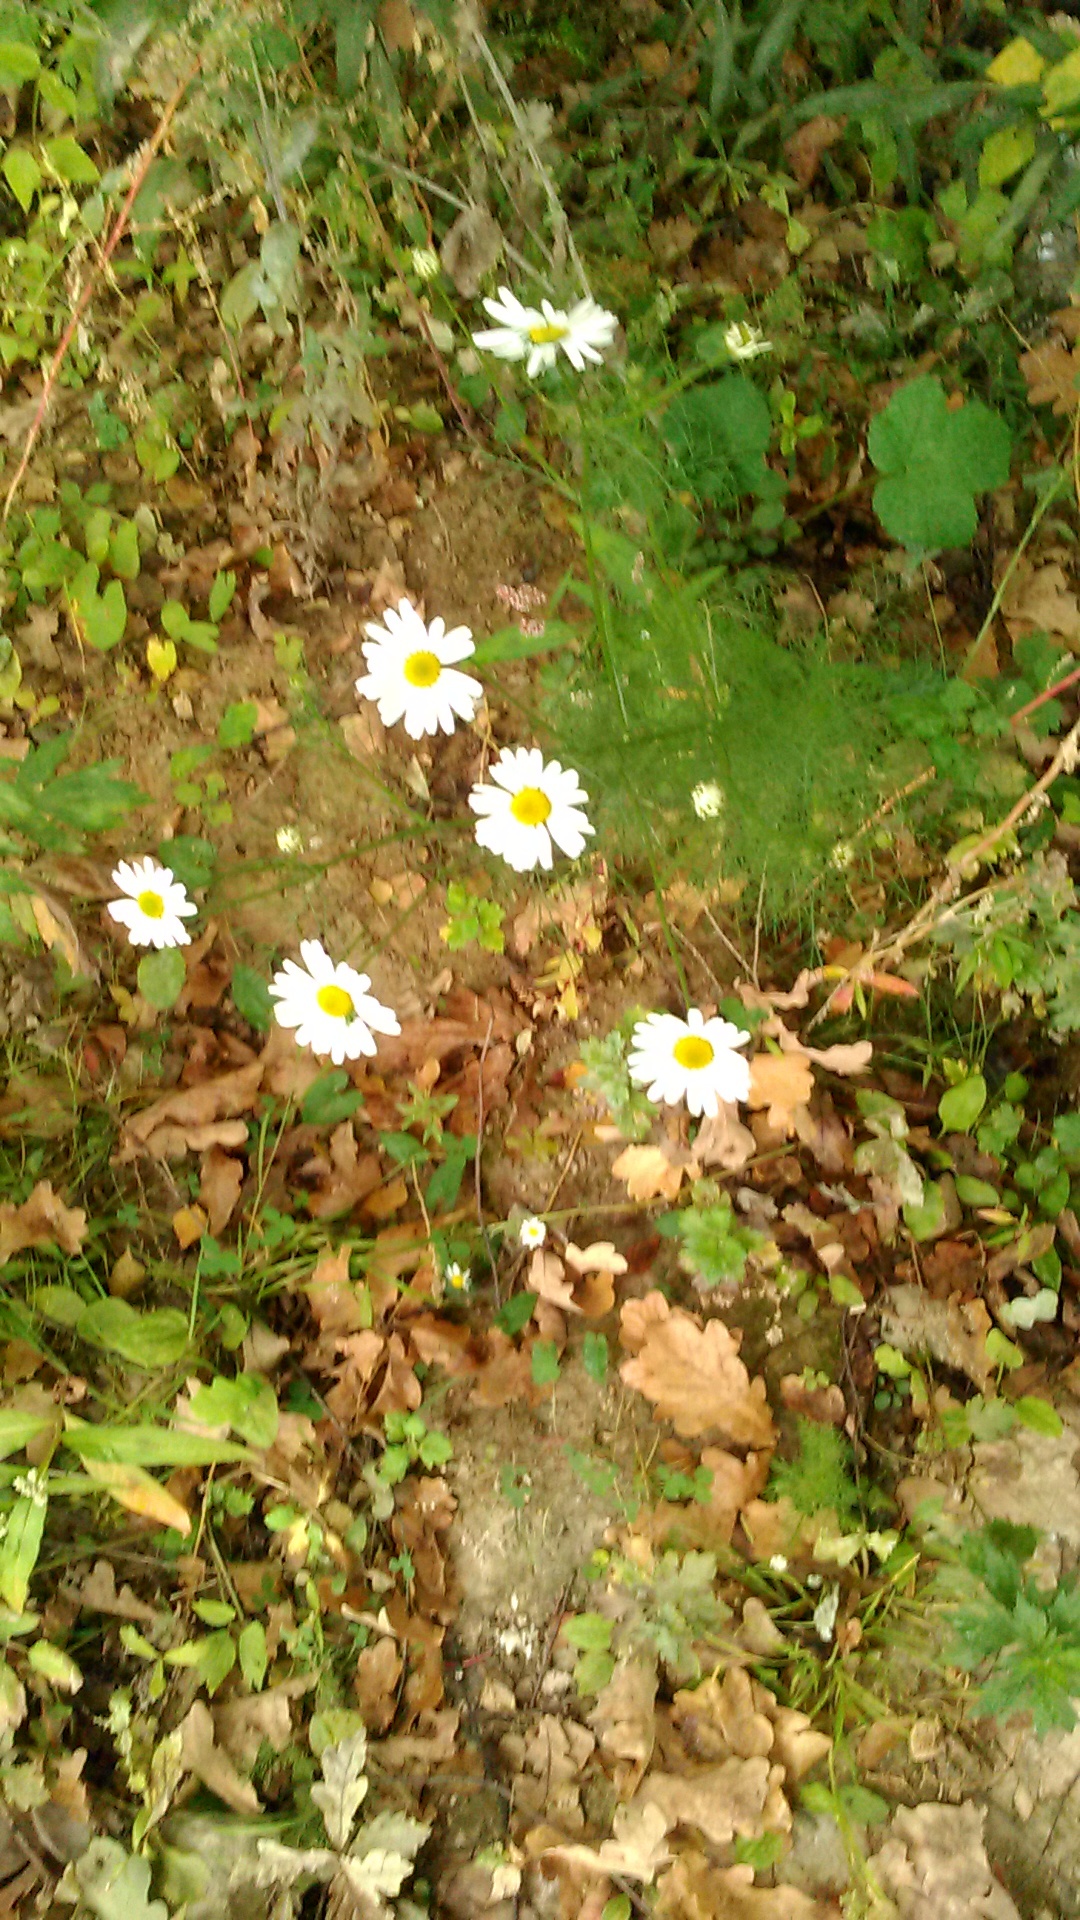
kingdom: Plantae
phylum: Tracheophyta
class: Magnoliopsida
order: Asterales
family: Asteraceae
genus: Tripleurospermum
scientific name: Tripleurospermum inodorum
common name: Scentless mayweed
